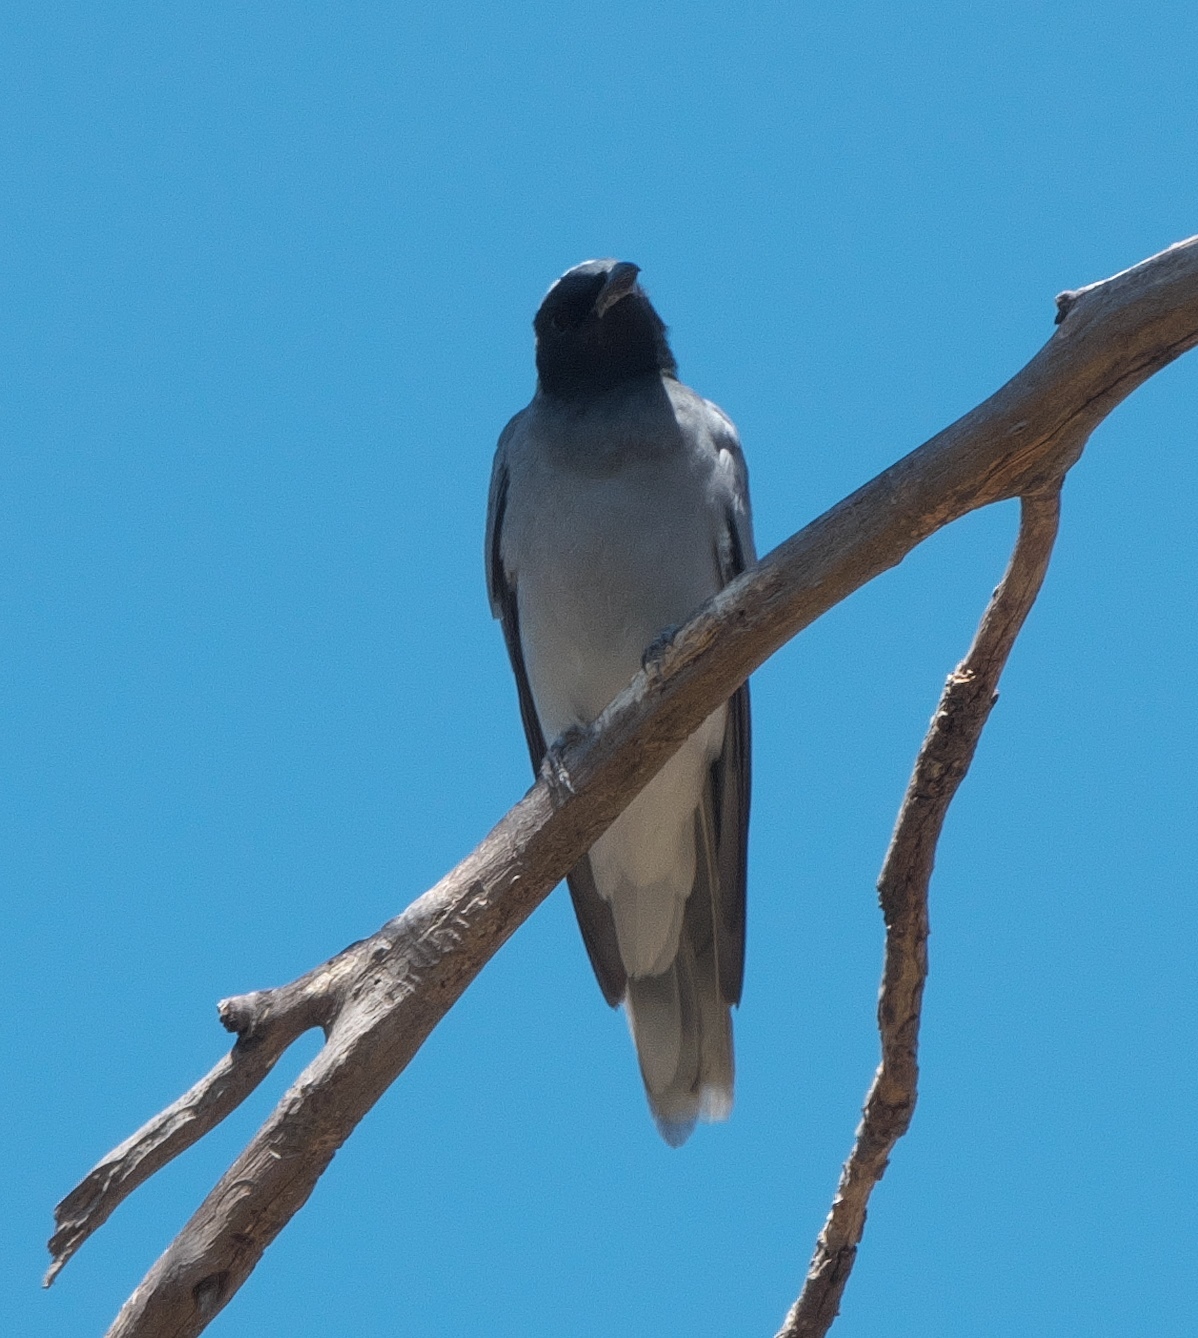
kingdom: Animalia
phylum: Chordata
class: Aves
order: Passeriformes
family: Campephagidae
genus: Coracina
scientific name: Coracina novaehollandiae
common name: Black-faced cuckooshrike
